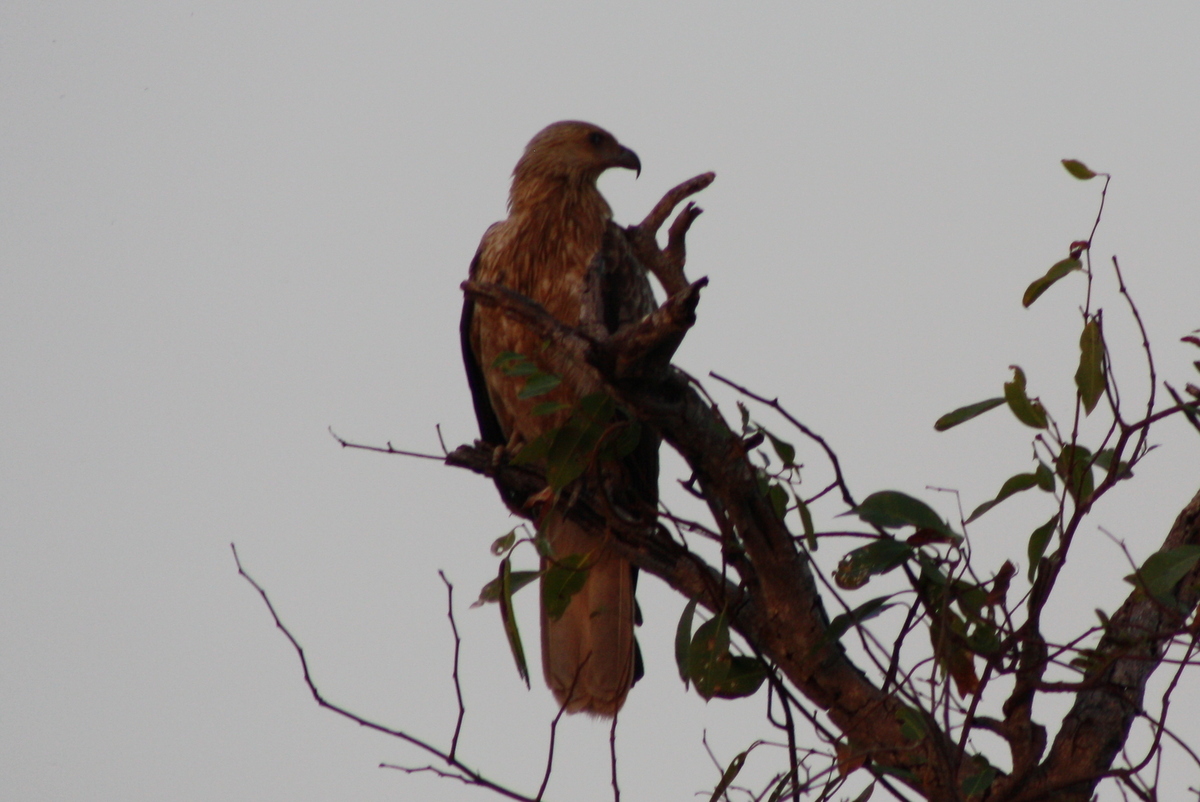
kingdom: Animalia
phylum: Chordata
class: Aves
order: Accipitriformes
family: Accipitridae
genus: Haliastur
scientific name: Haliastur sphenurus
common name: Whistling kite
